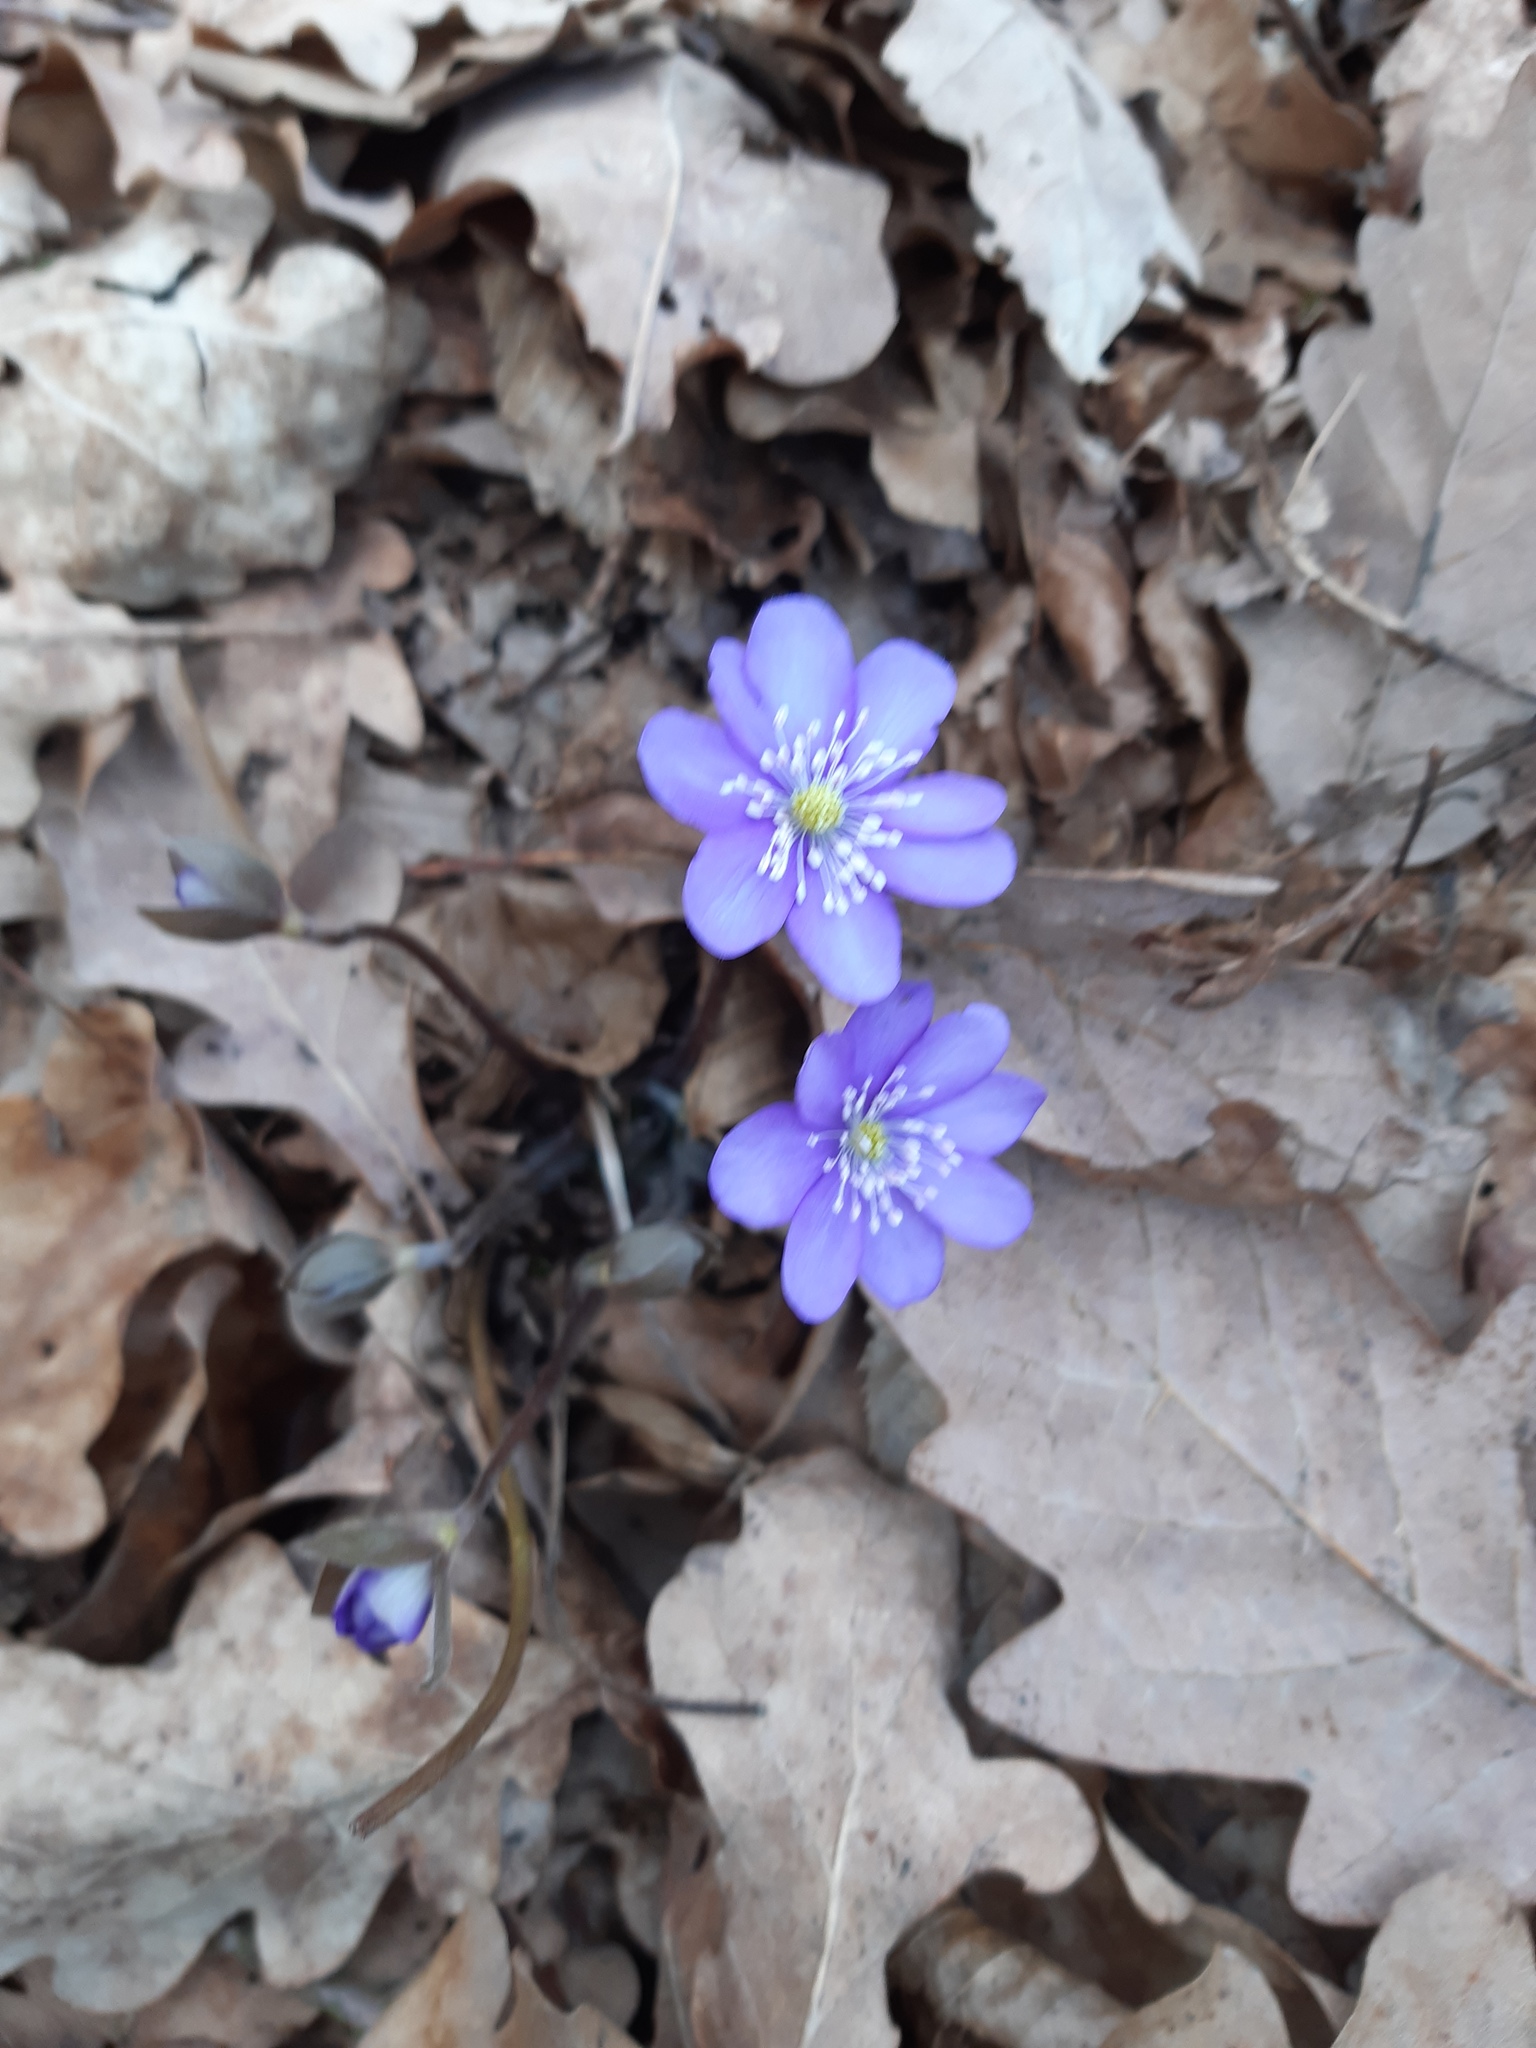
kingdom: Plantae
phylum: Tracheophyta
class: Magnoliopsida
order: Ranunculales
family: Ranunculaceae
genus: Hepatica
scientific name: Hepatica nobilis
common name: Liverleaf
